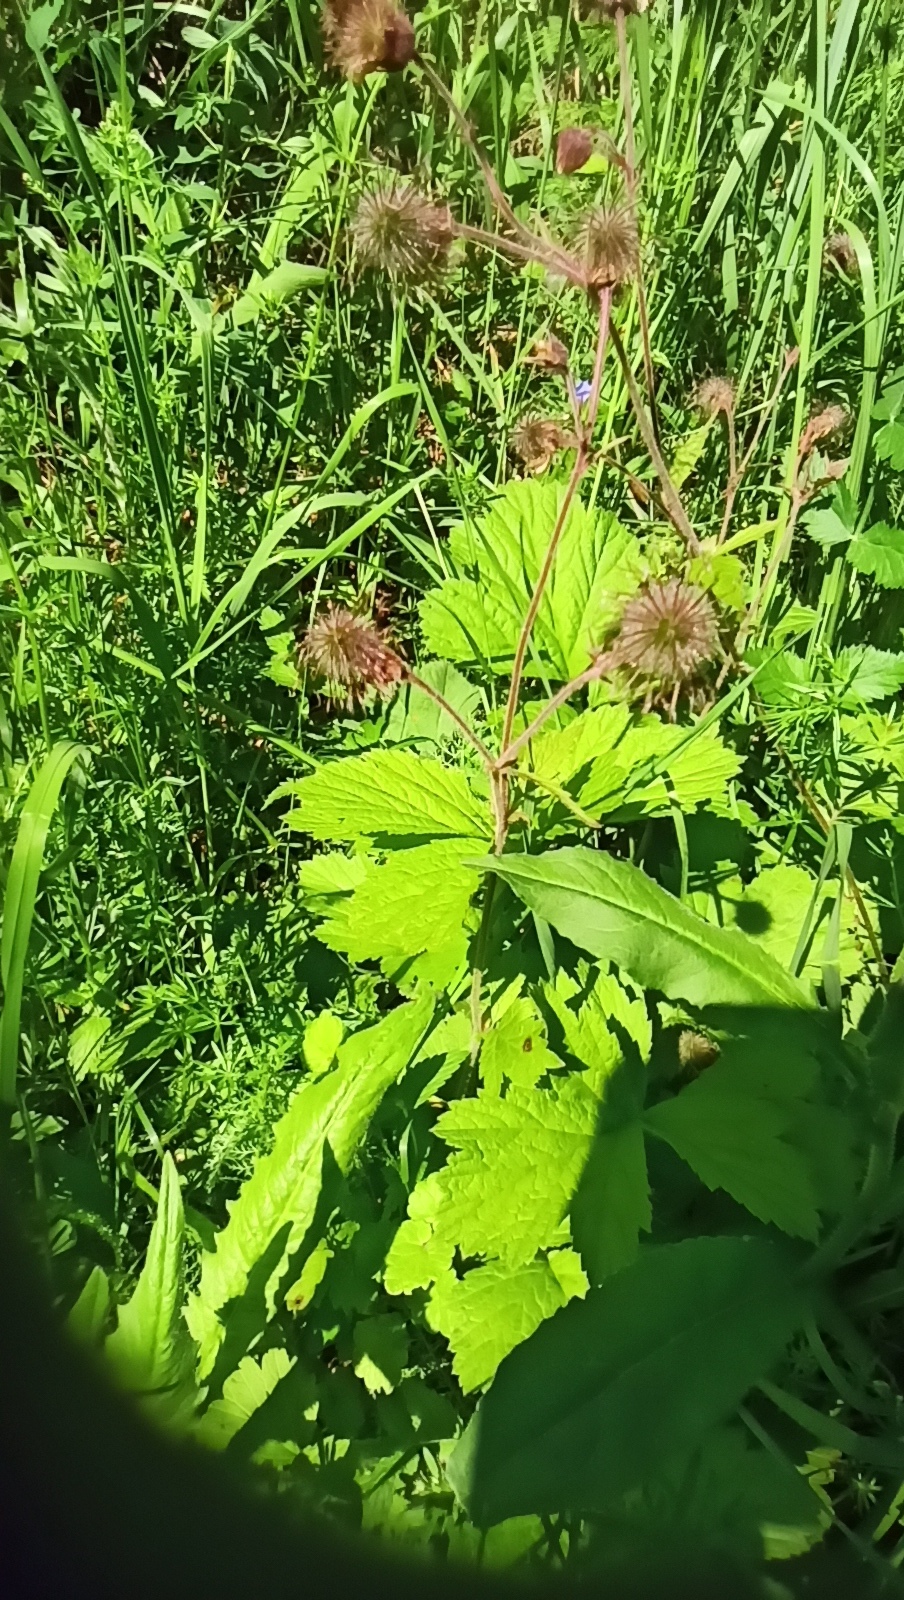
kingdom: Plantae
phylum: Tracheophyta
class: Magnoliopsida
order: Rosales
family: Rosaceae
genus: Geum
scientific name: Geum rivale
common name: Water avens
